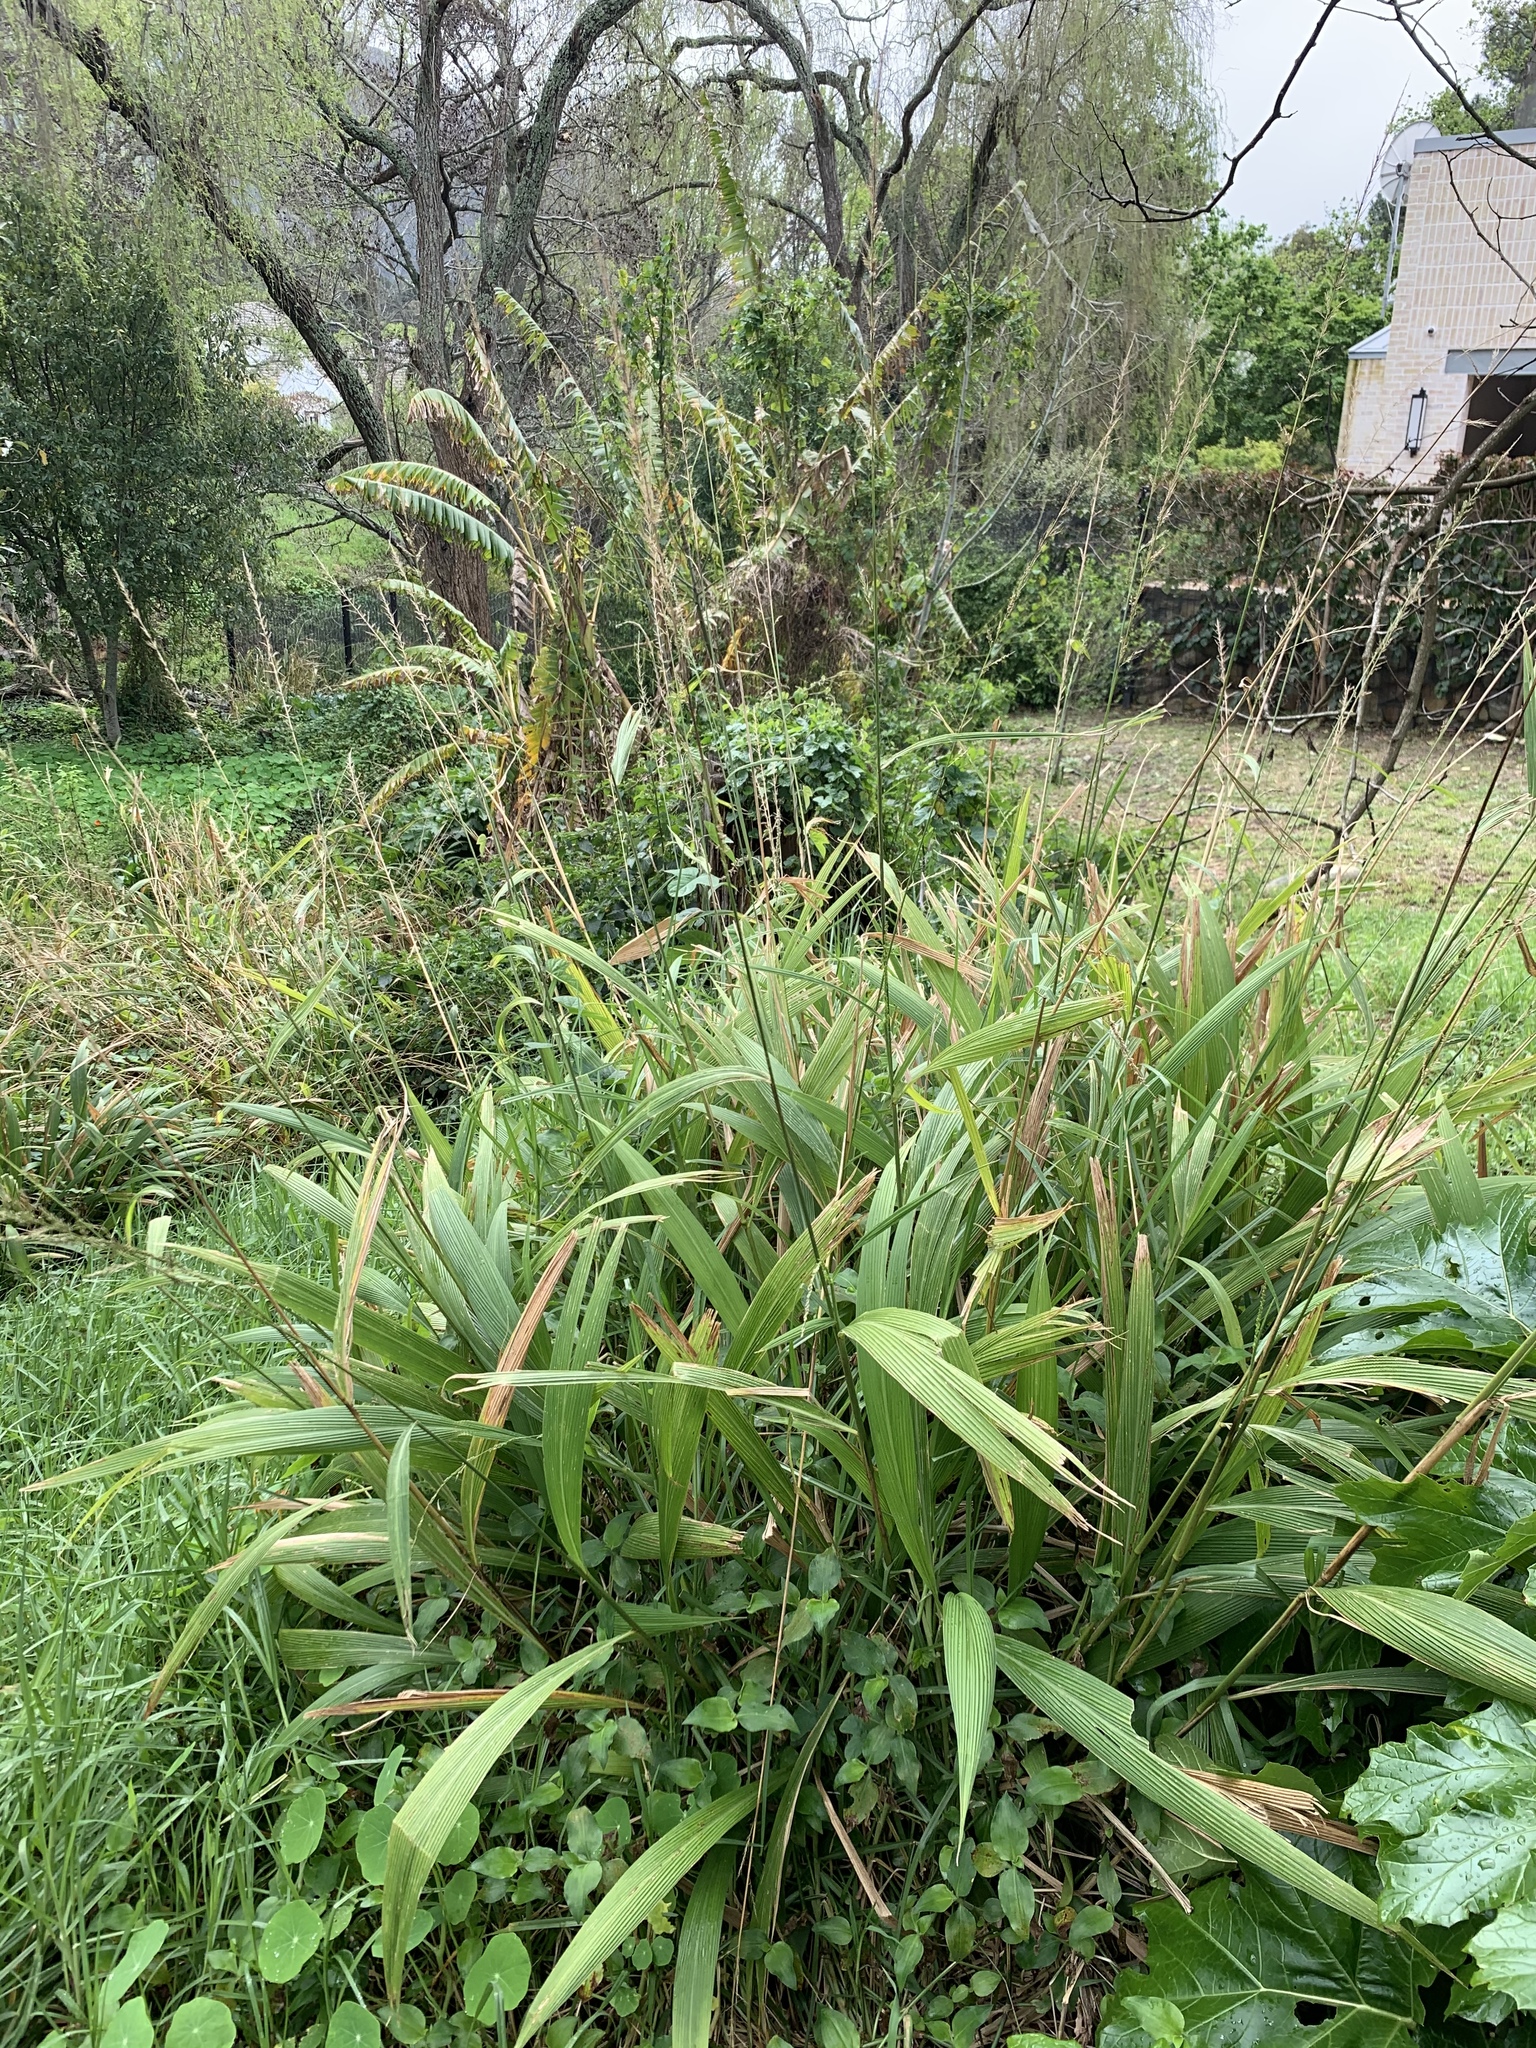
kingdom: Plantae
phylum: Tracheophyta
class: Liliopsida
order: Poales
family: Poaceae
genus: Setaria
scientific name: Setaria megaphylla
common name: Bigleaf bristlegrass
